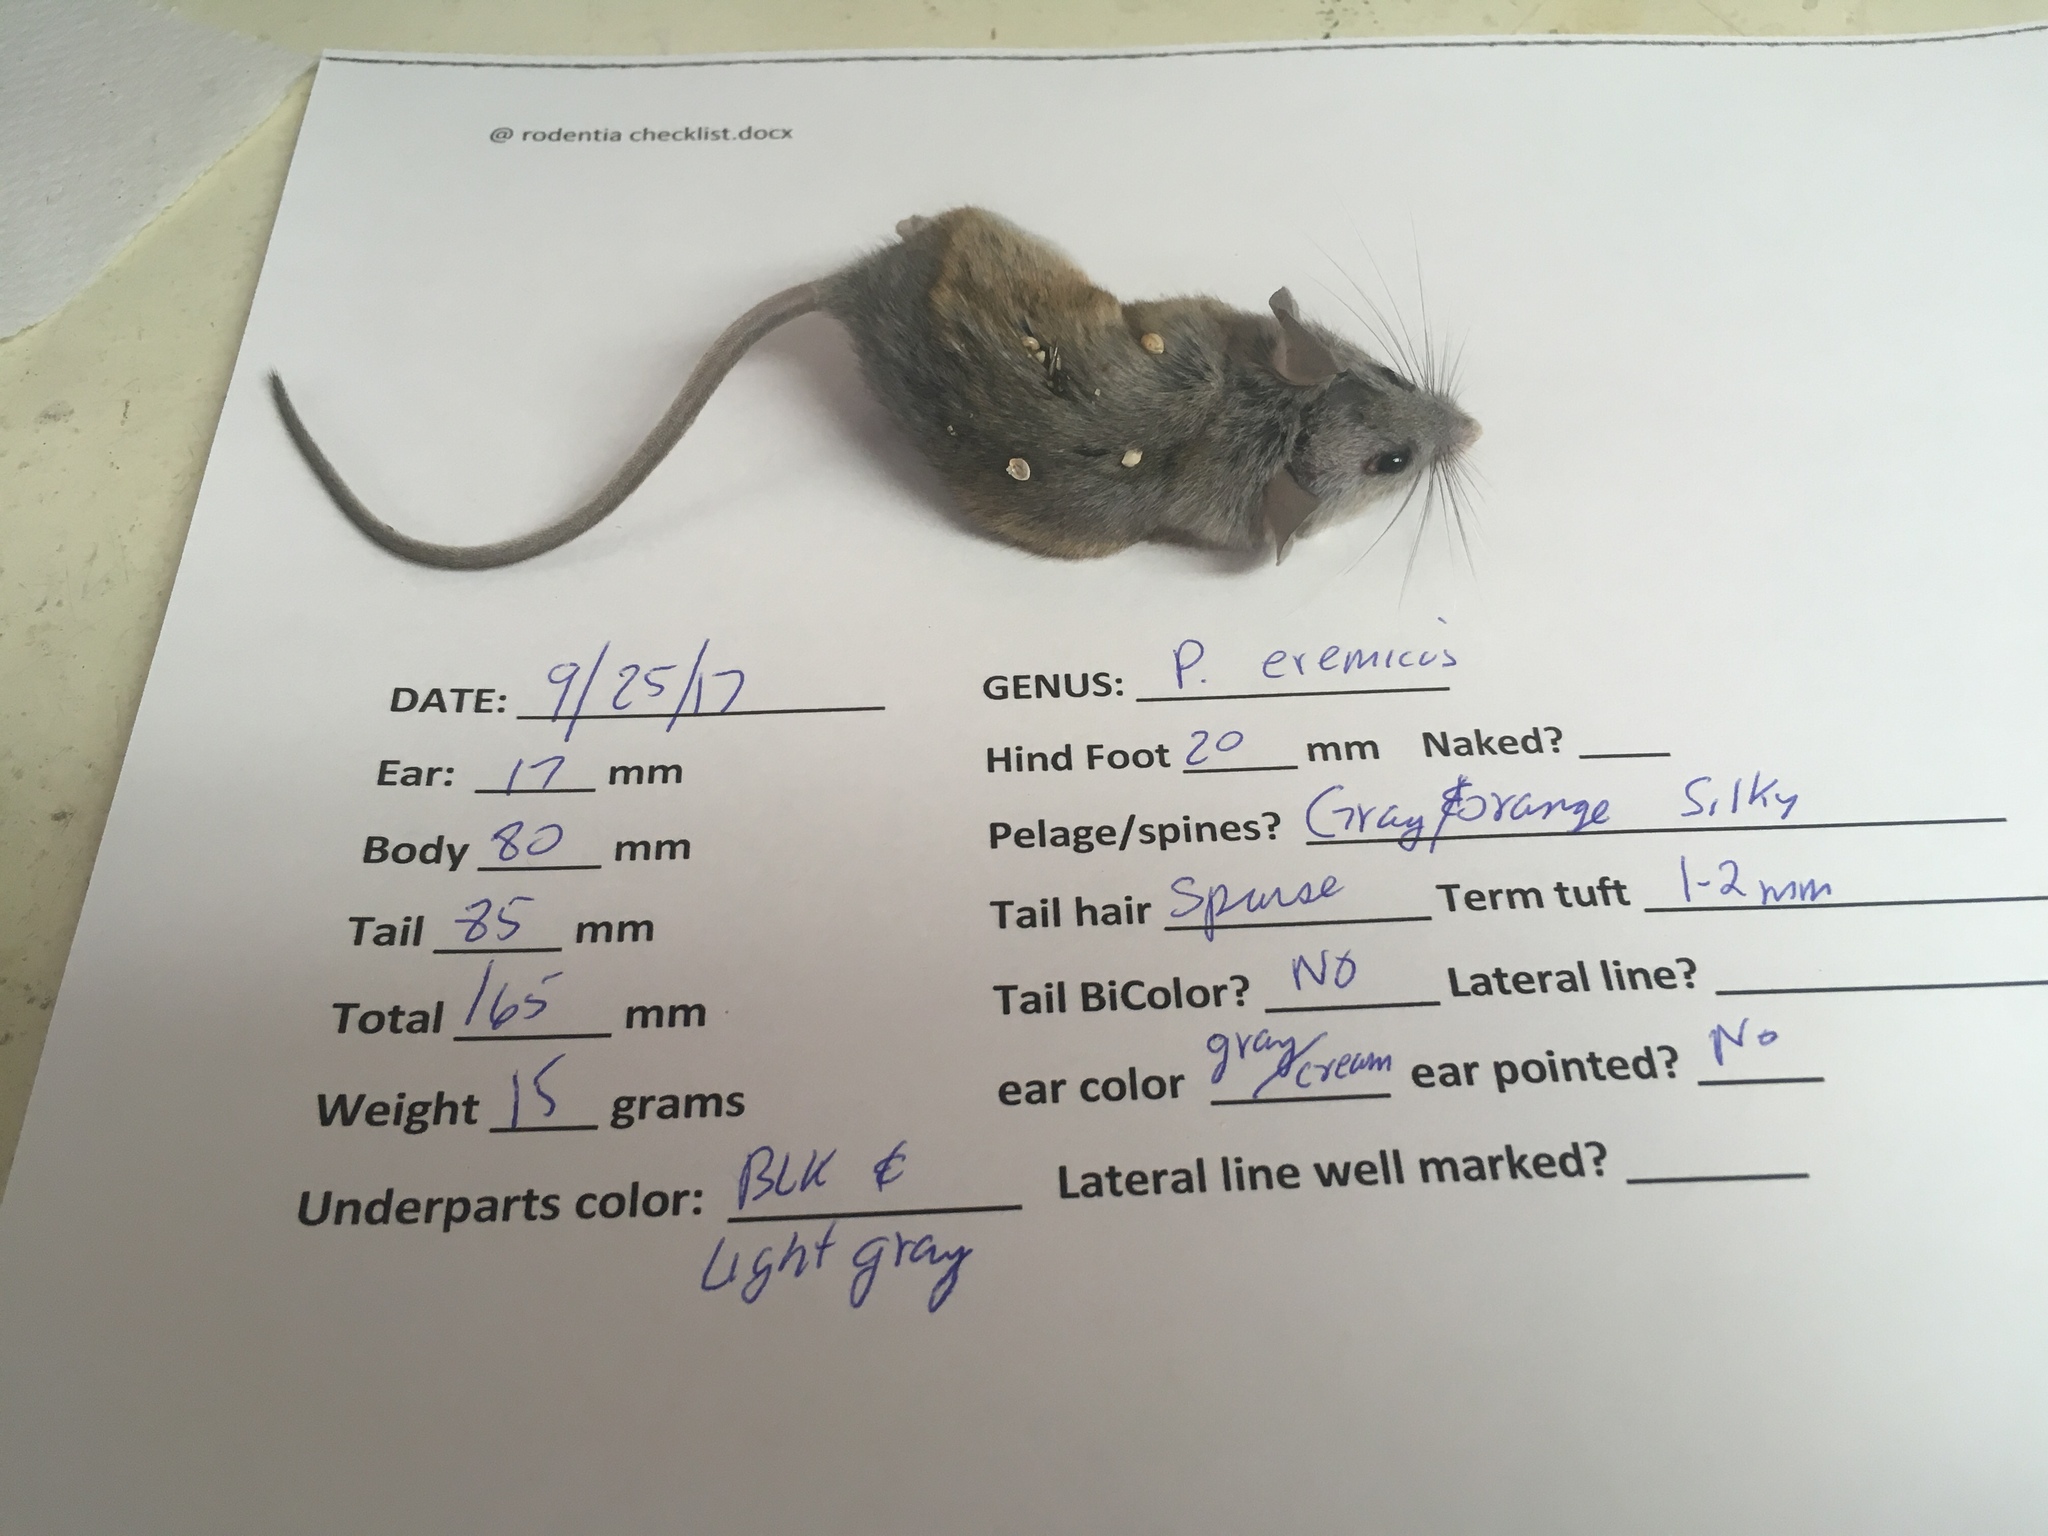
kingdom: Animalia
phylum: Chordata
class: Mammalia
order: Rodentia
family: Cricetidae
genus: Peromyscus
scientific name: Peromyscus eremicus
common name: Cactus deermouse
